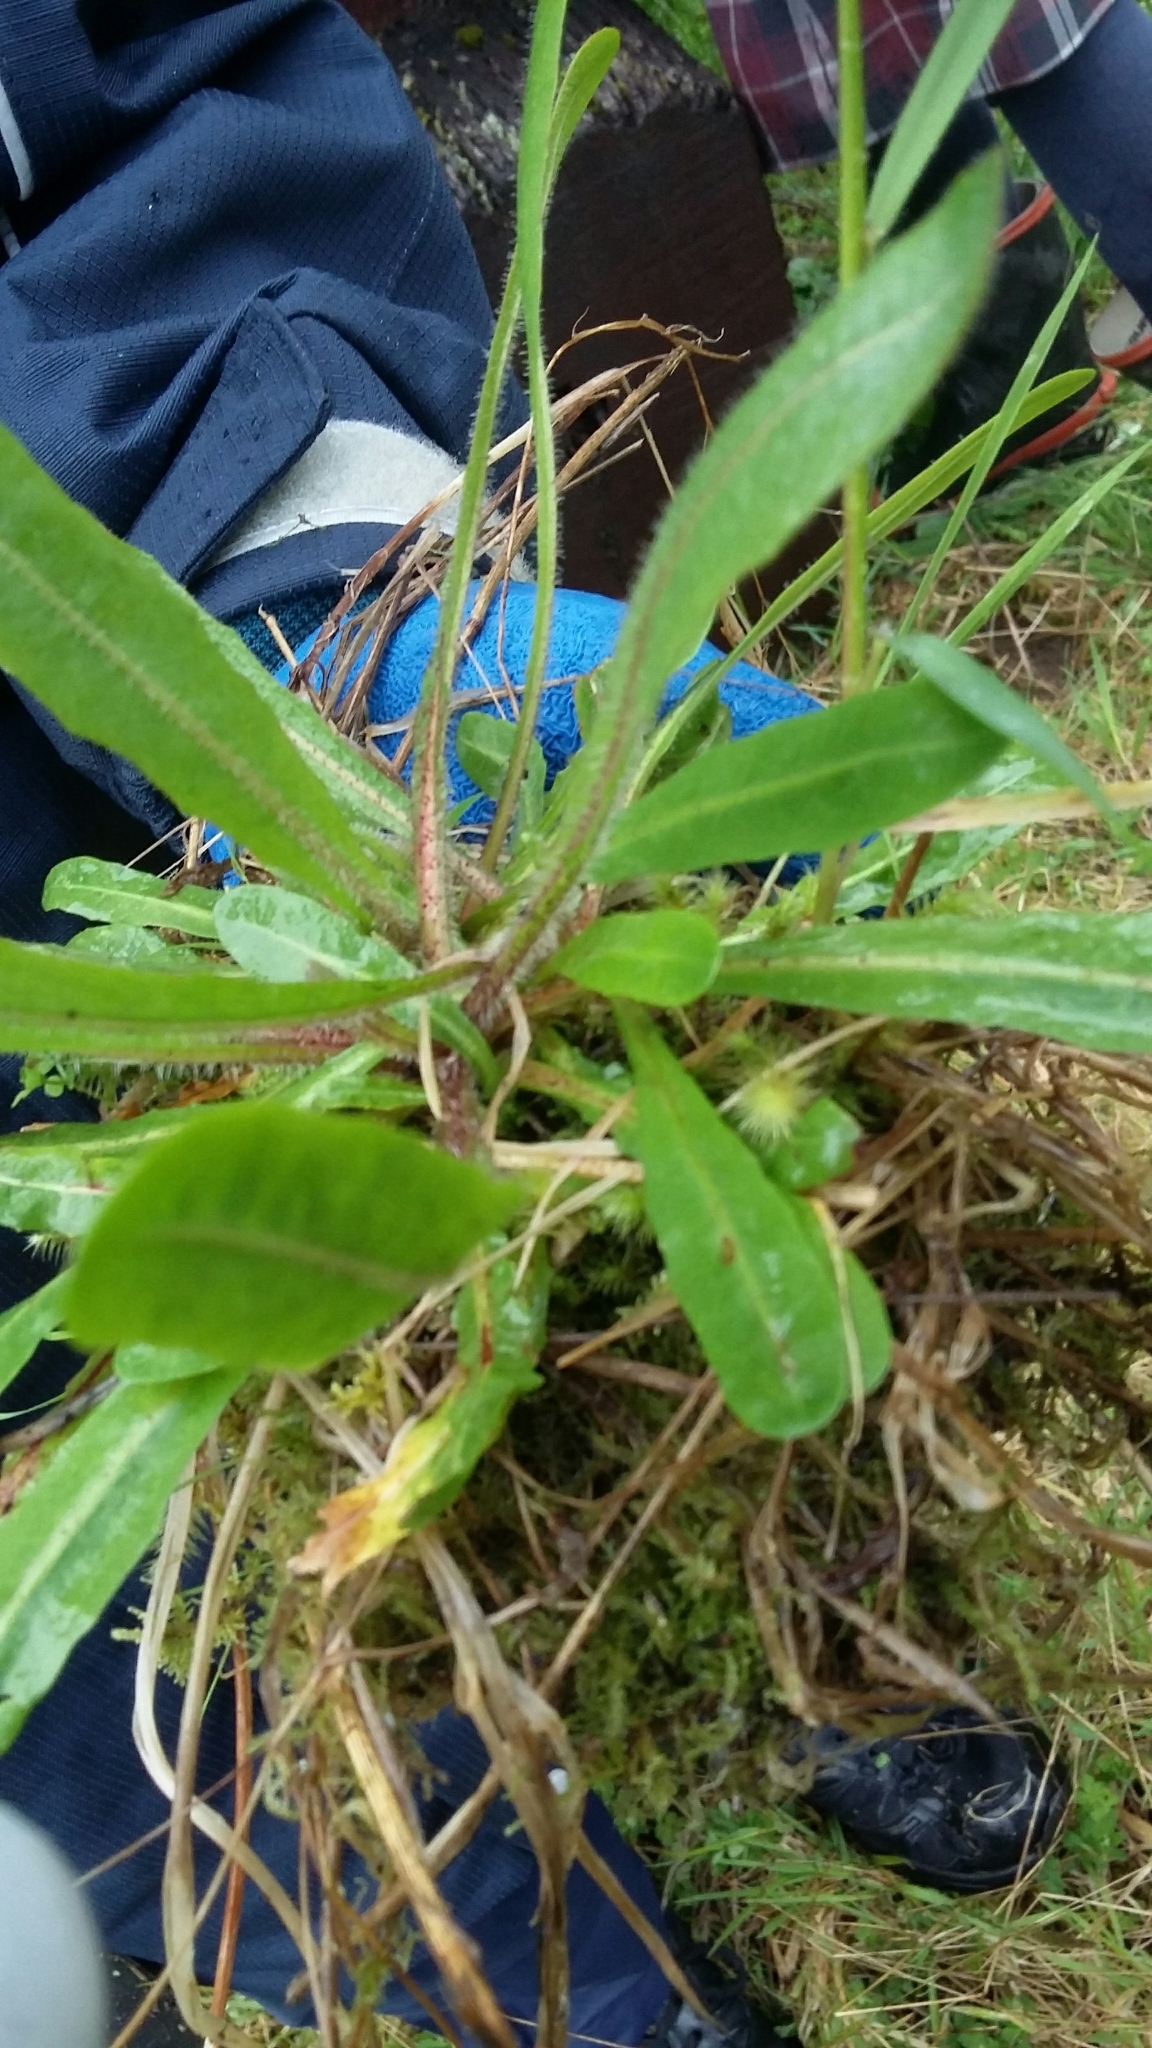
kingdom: Plantae
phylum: Tracheophyta
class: Magnoliopsida
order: Asterales
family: Asteraceae
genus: Hypochaeris
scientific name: Hypochaeris radicata
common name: Flatweed
